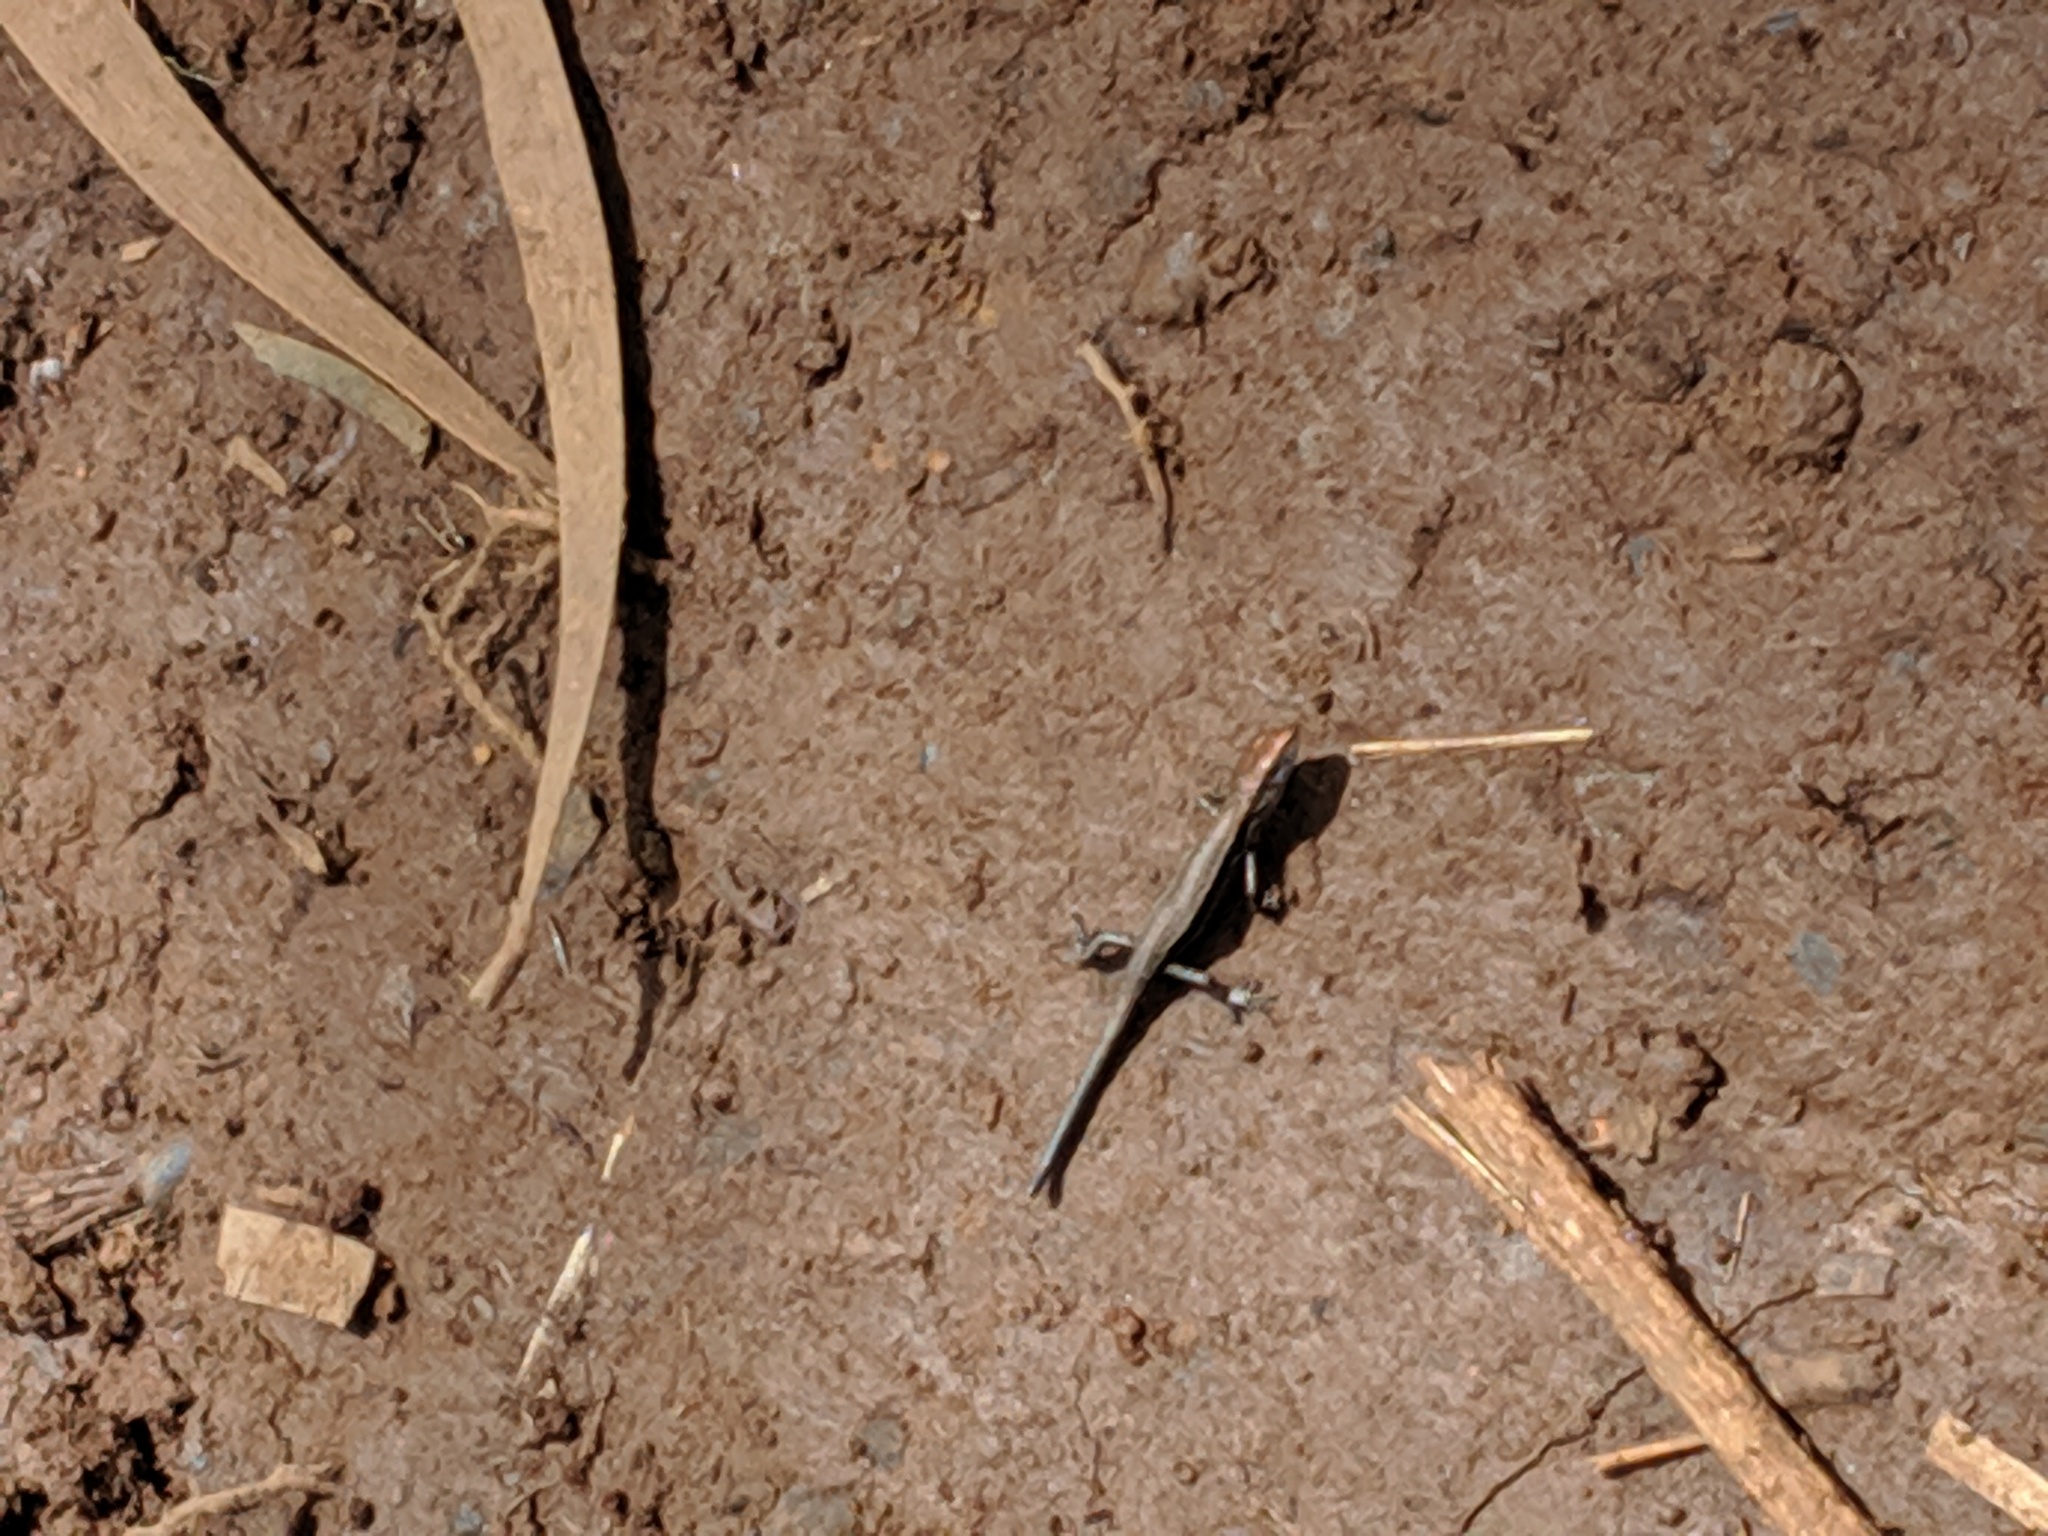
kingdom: Animalia
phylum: Chordata
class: Squamata
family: Scincidae
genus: Lampropholis
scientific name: Lampropholis delicata
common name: Plague skink
